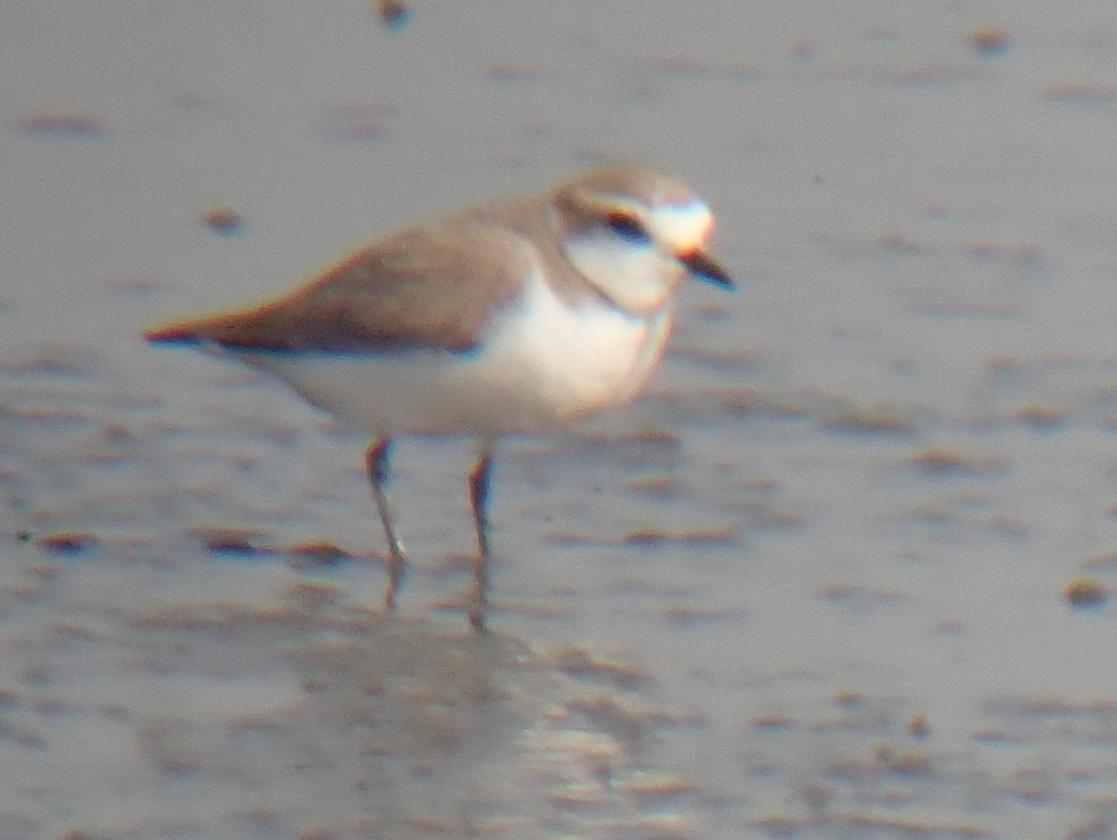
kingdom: Animalia
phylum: Chordata
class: Aves
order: Charadriiformes
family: Charadriidae
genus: Charadrius
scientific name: Charadrius alexandrinus
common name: Kentish plover
